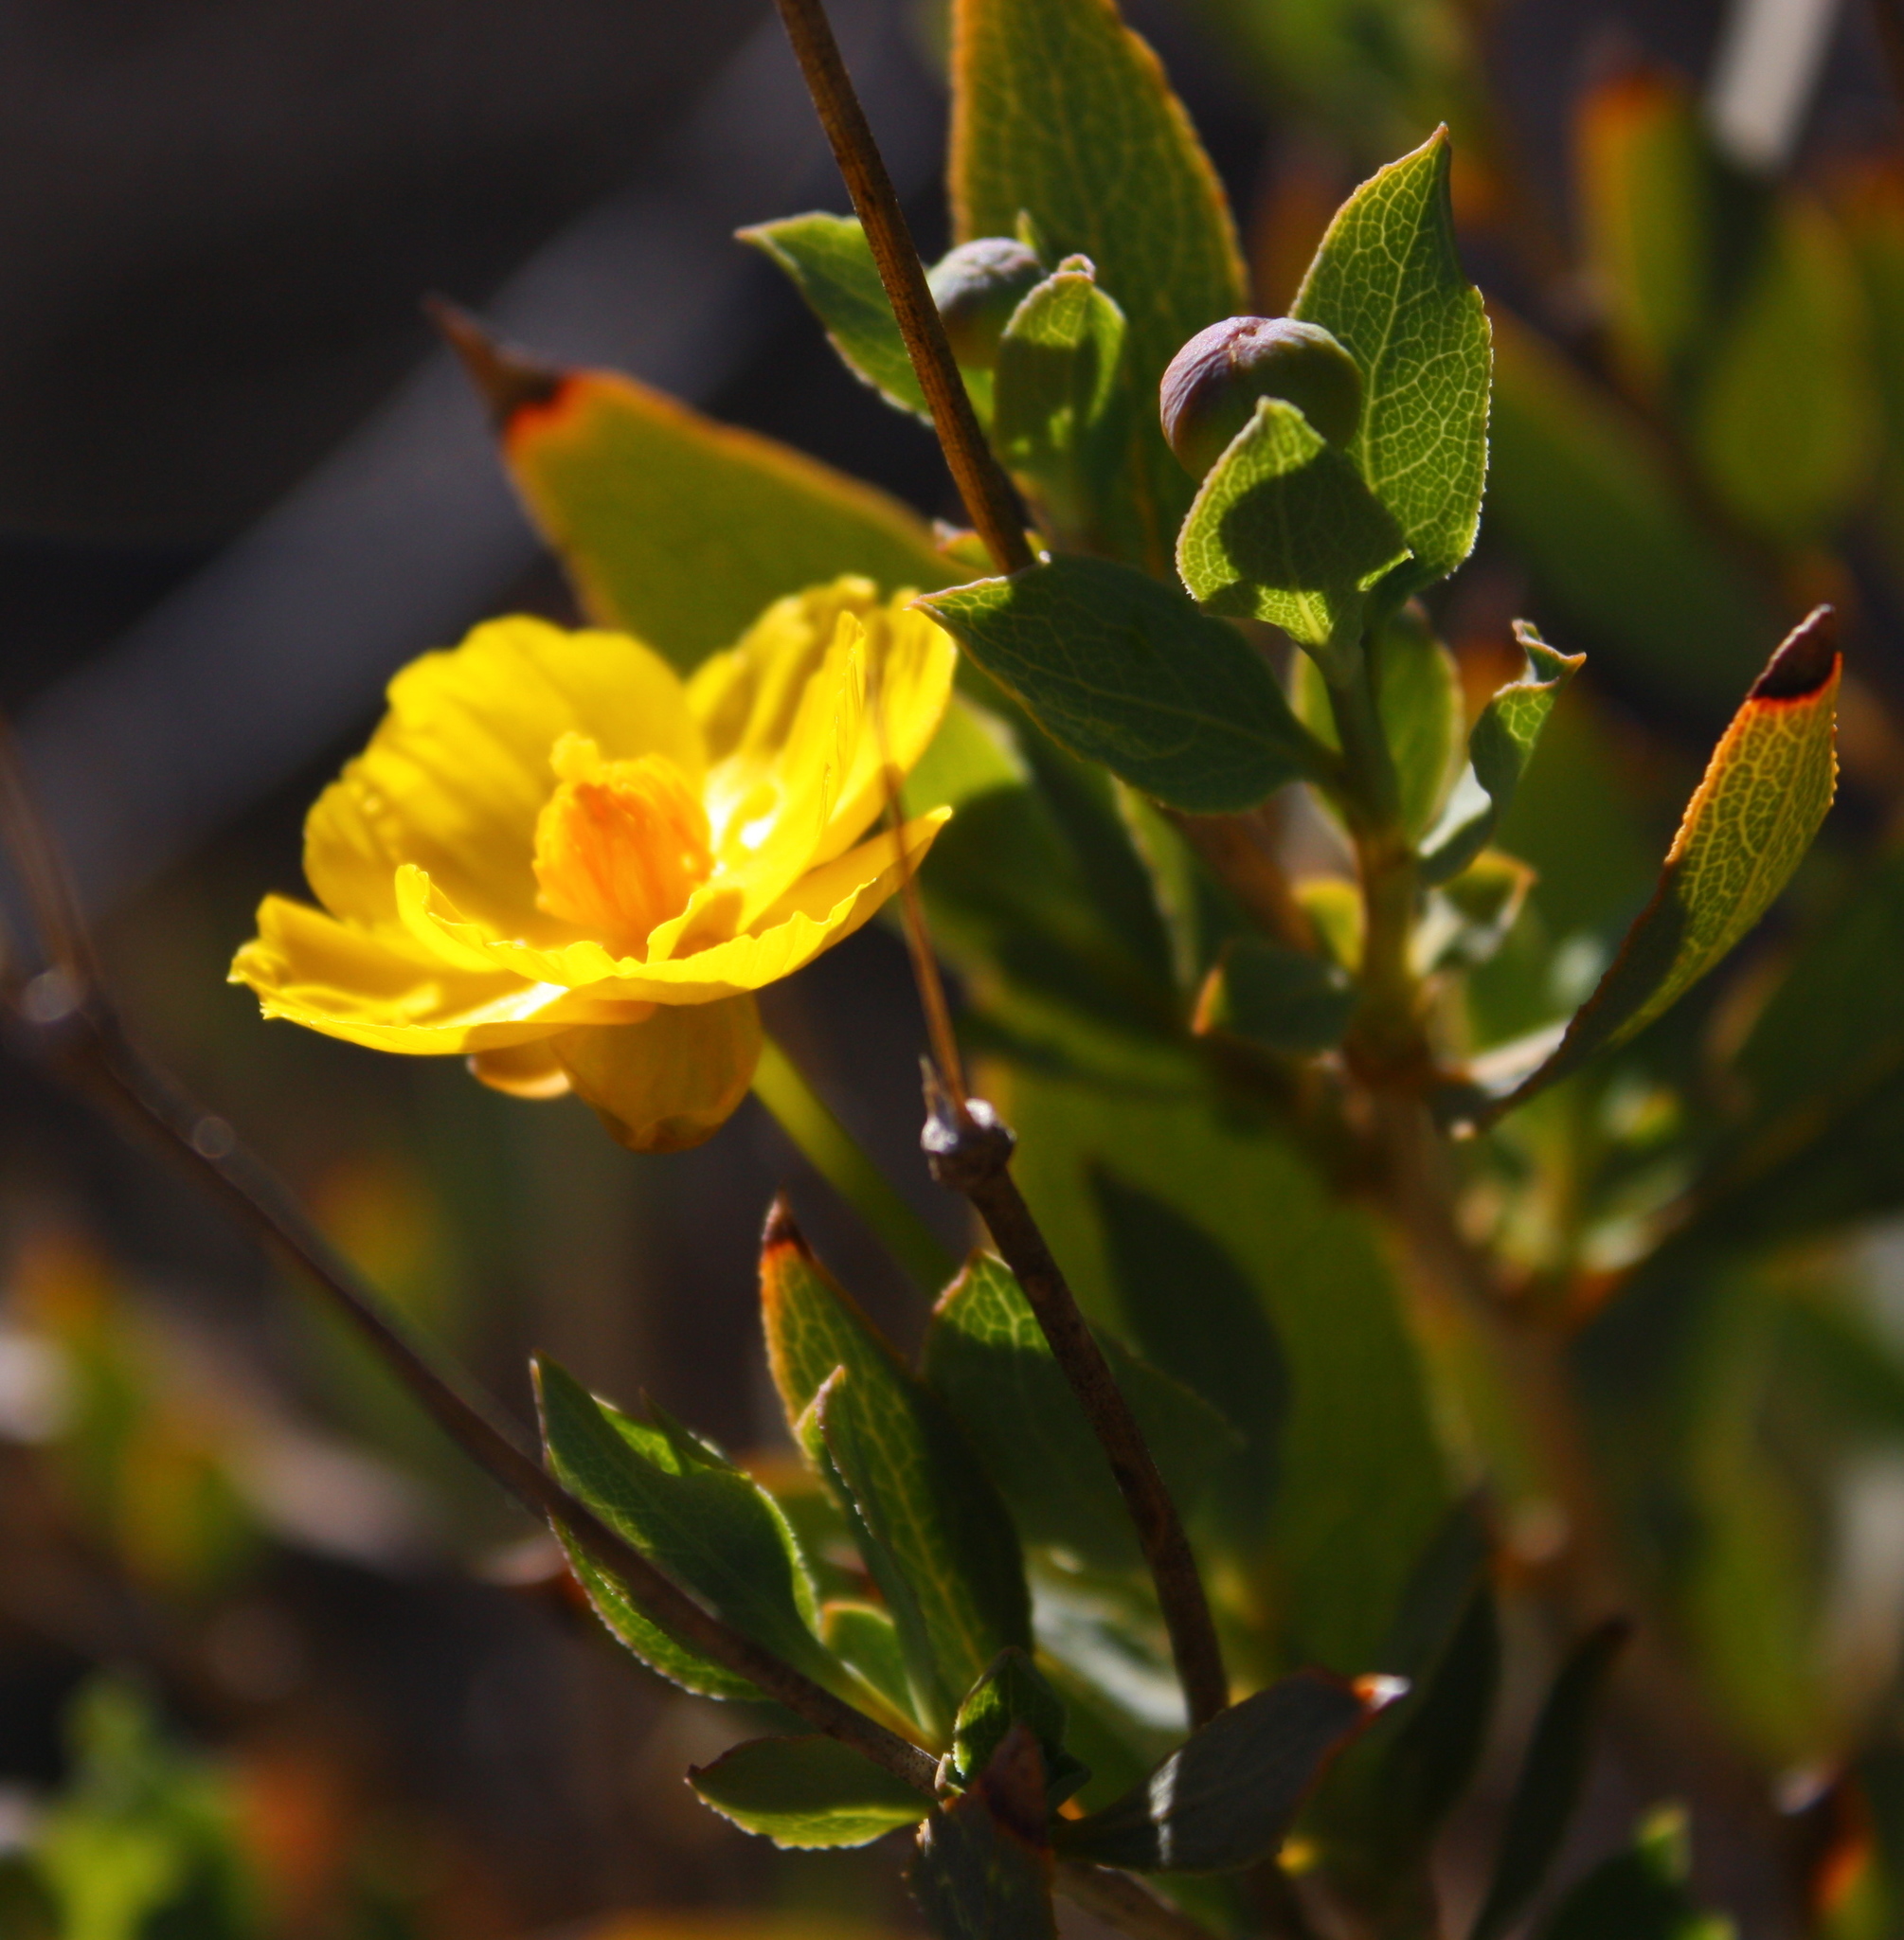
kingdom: Plantae
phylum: Tracheophyta
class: Magnoliopsida
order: Ranunculales
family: Papaveraceae
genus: Dendromecon
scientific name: Dendromecon rigida
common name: Tree poppy
